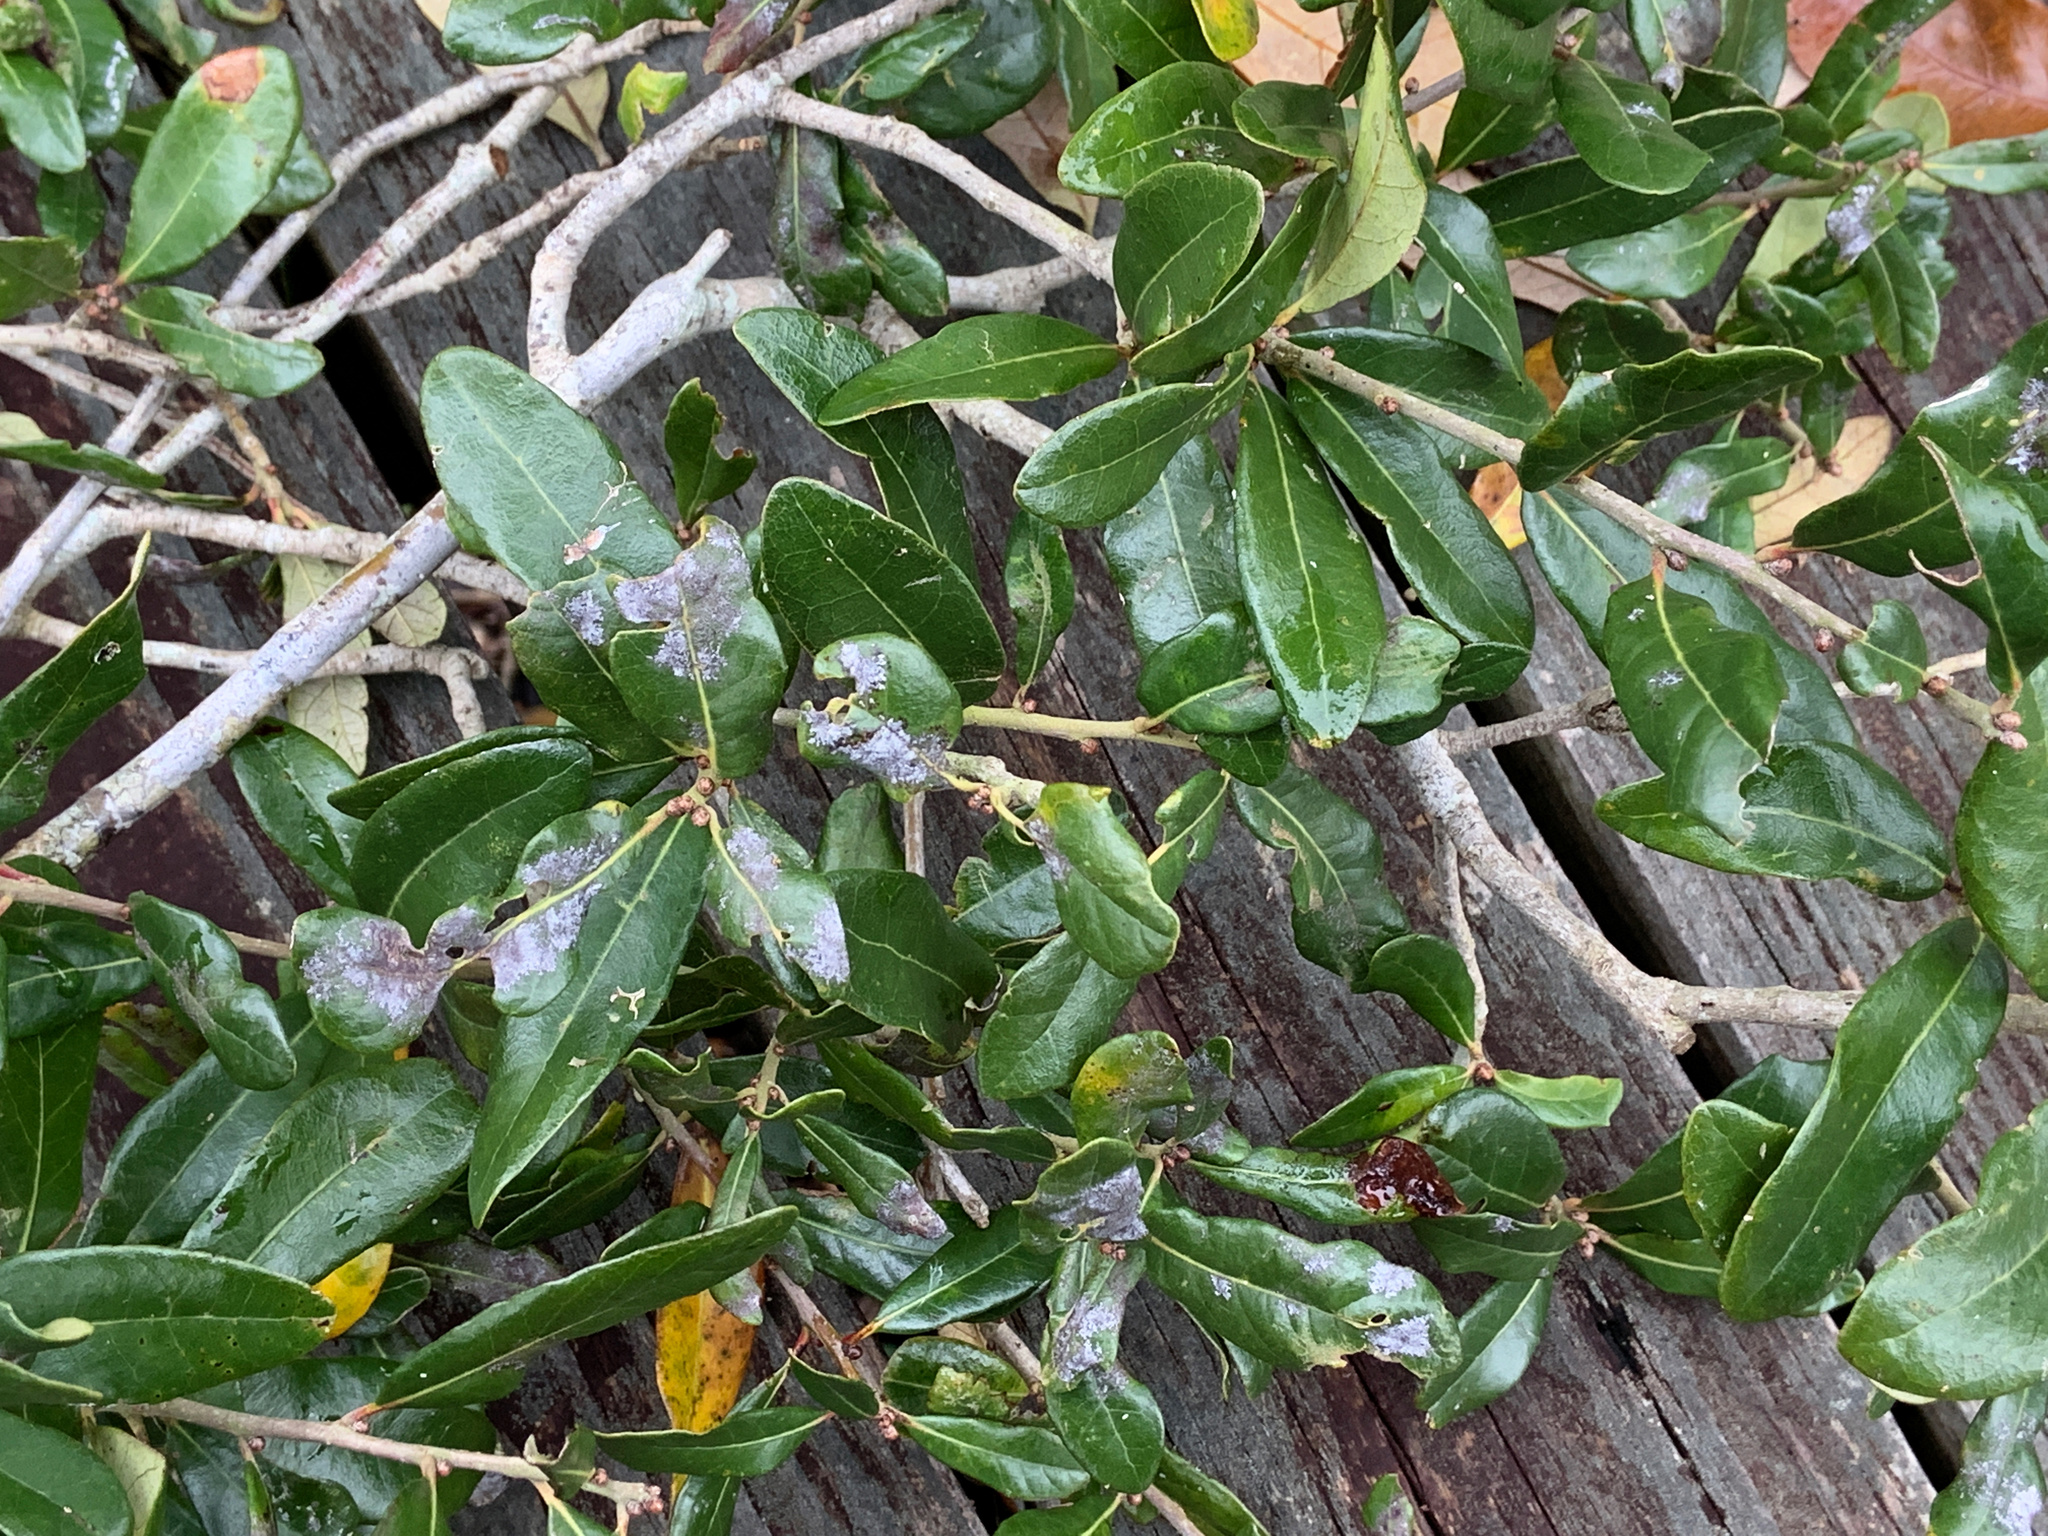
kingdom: Plantae
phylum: Tracheophyta
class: Magnoliopsida
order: Fagales
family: Fagaceae
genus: Quercus
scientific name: Quercus virginiana
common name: Southern live oak
